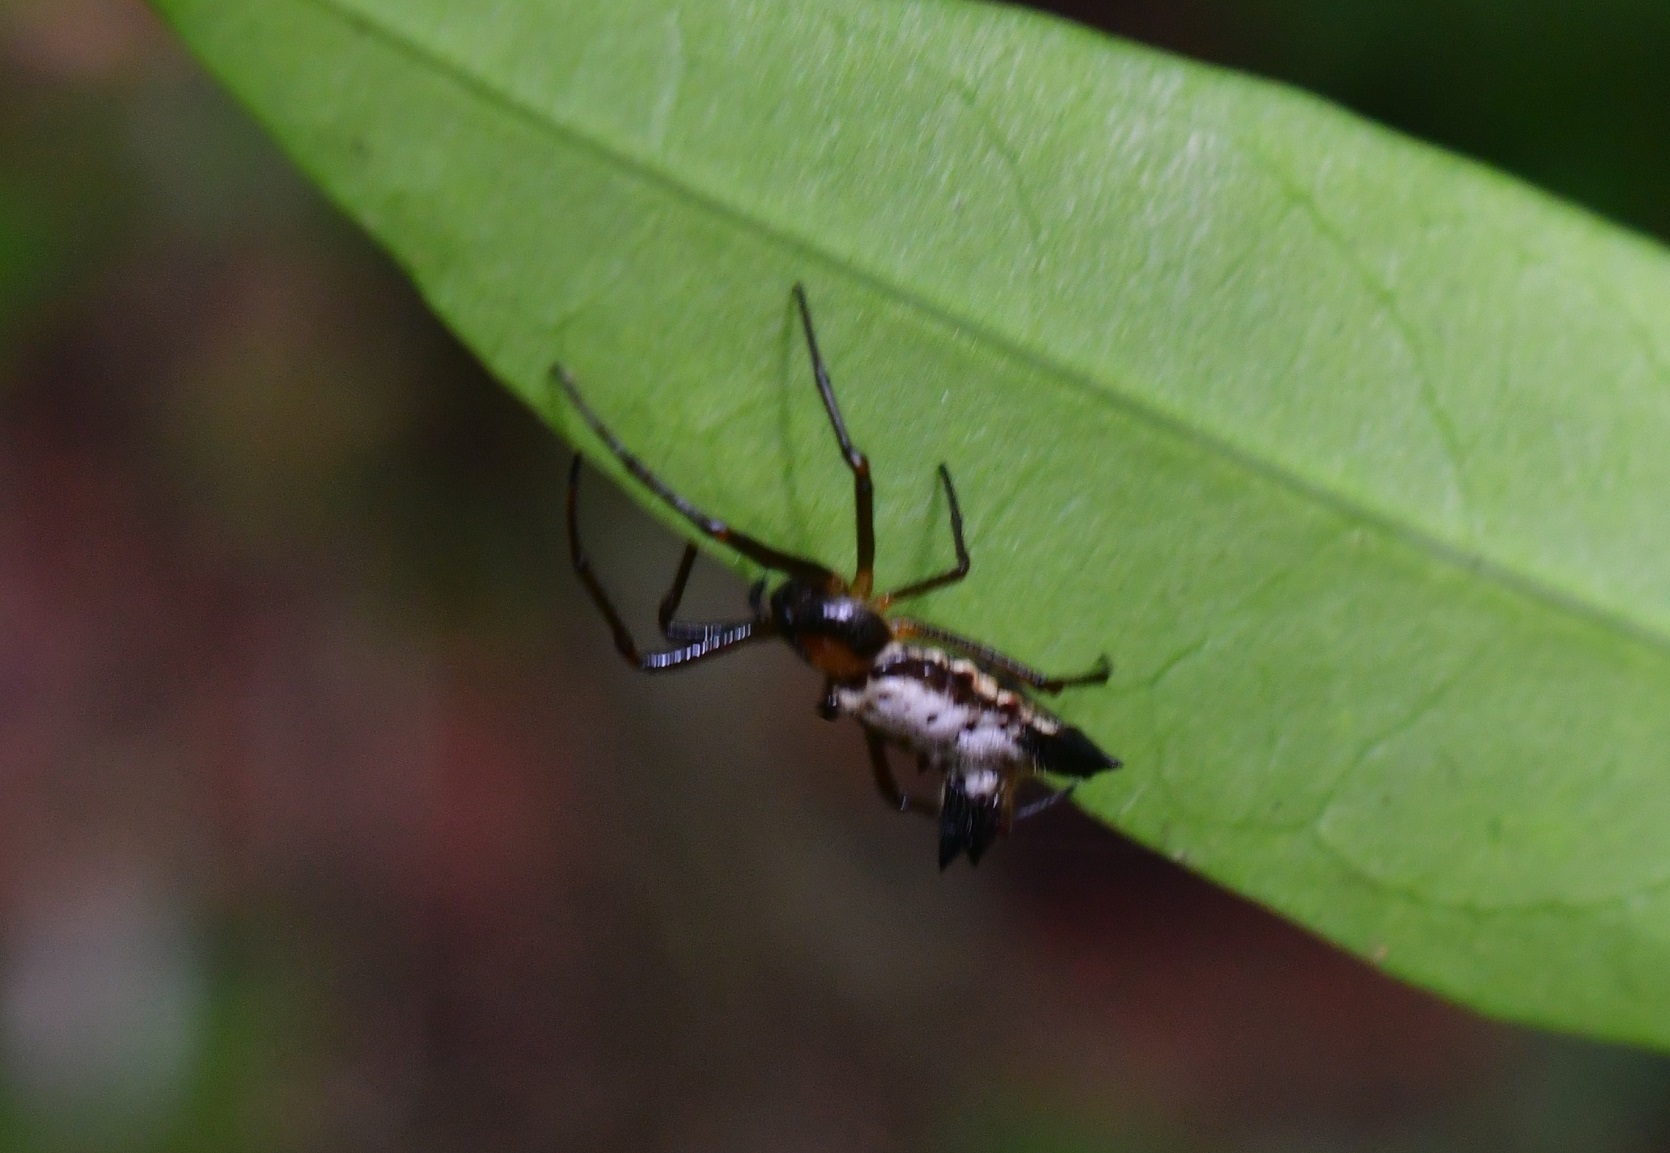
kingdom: Animalia
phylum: Arthropoda
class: Arachnida
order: Araneae
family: Araneidae
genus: Micrathena
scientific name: Micrathena duodecimspinosa
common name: Orb weavers
